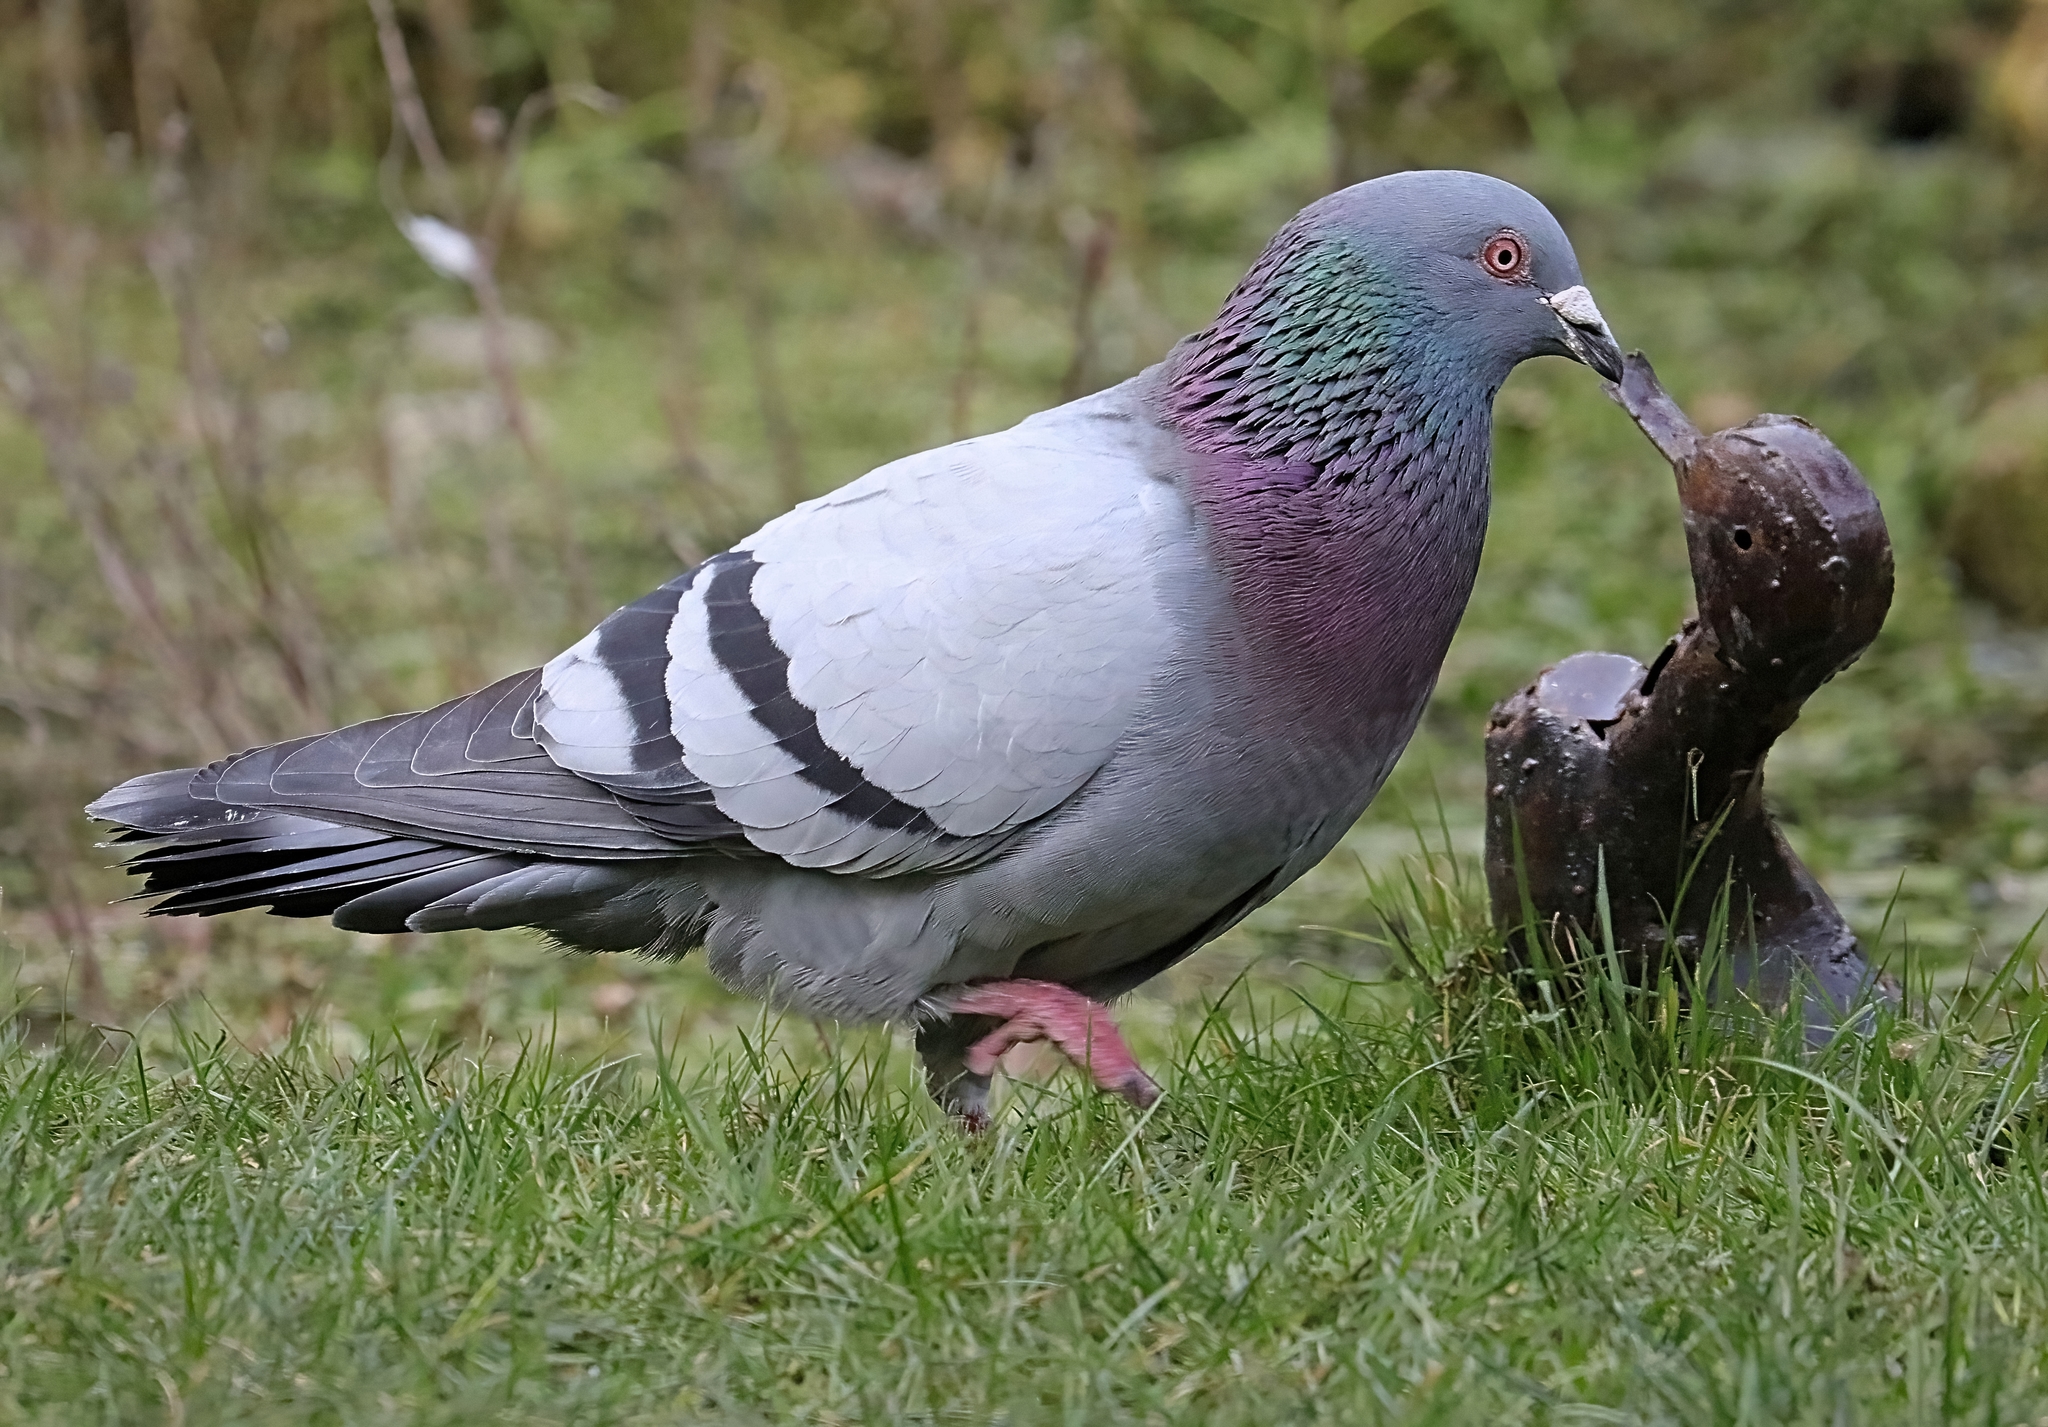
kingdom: Animalia
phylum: Chordata
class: Aves
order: Columbiformes
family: Columbidae
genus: Columba
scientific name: Columba livia
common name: Rock pigeon
